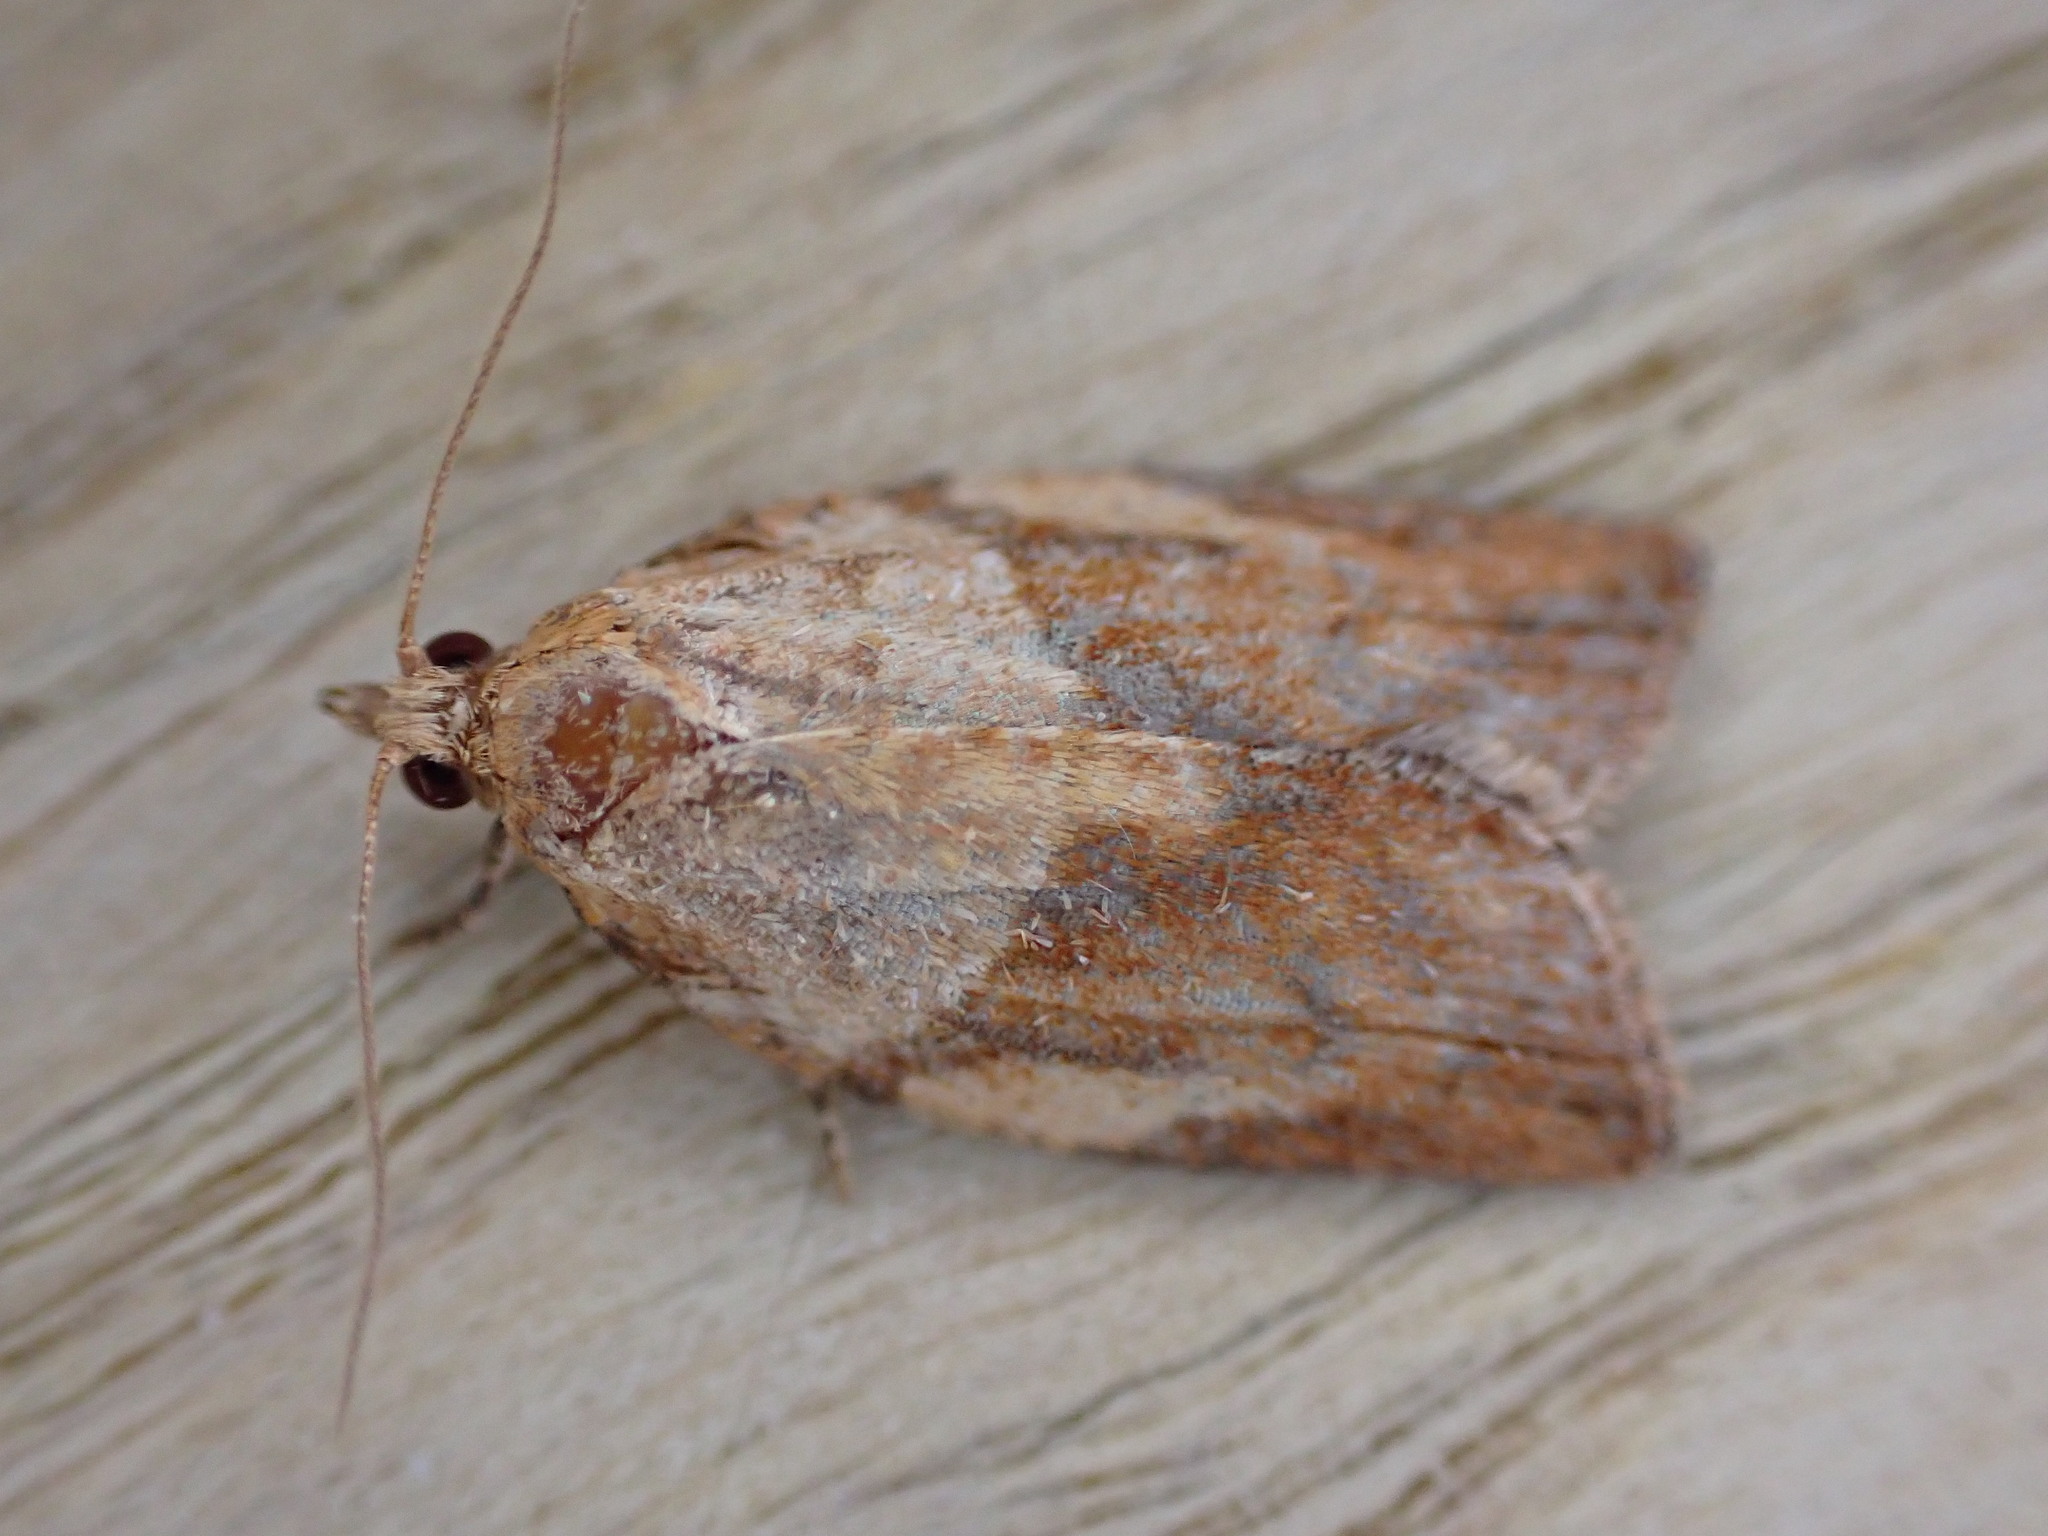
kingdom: Animalia
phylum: Arthropoda
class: Insecta
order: Lepidoptera
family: Tortricidae
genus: Epiphyas
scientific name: Epiphyas postvittana
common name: Light brown apple moth
